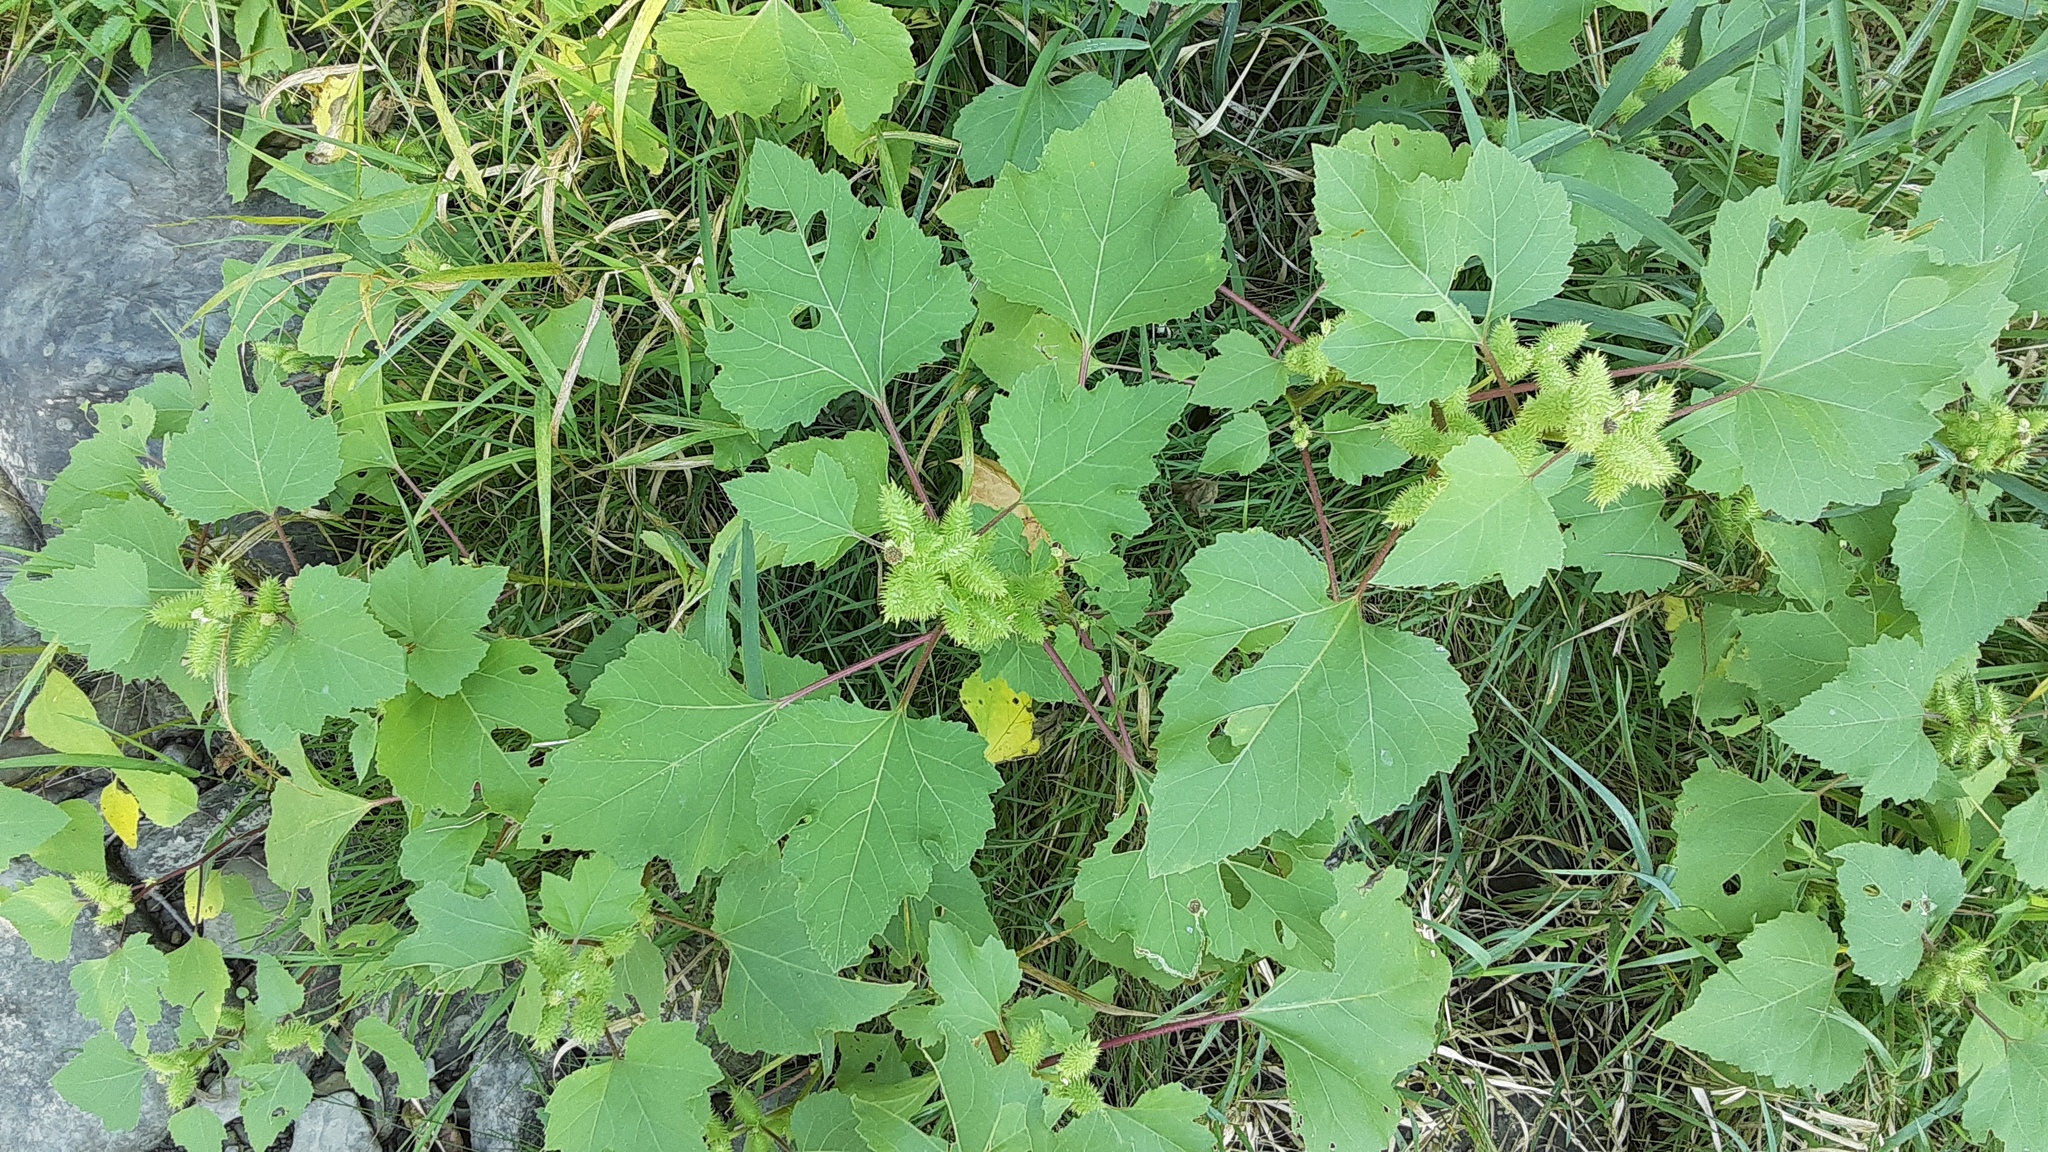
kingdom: Plantae
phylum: Tracheophyta
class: Magnoliopsida
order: Asterales
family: Asteraceae
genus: Xanthium
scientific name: Xanthium strumarium
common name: Rough cocklebur
